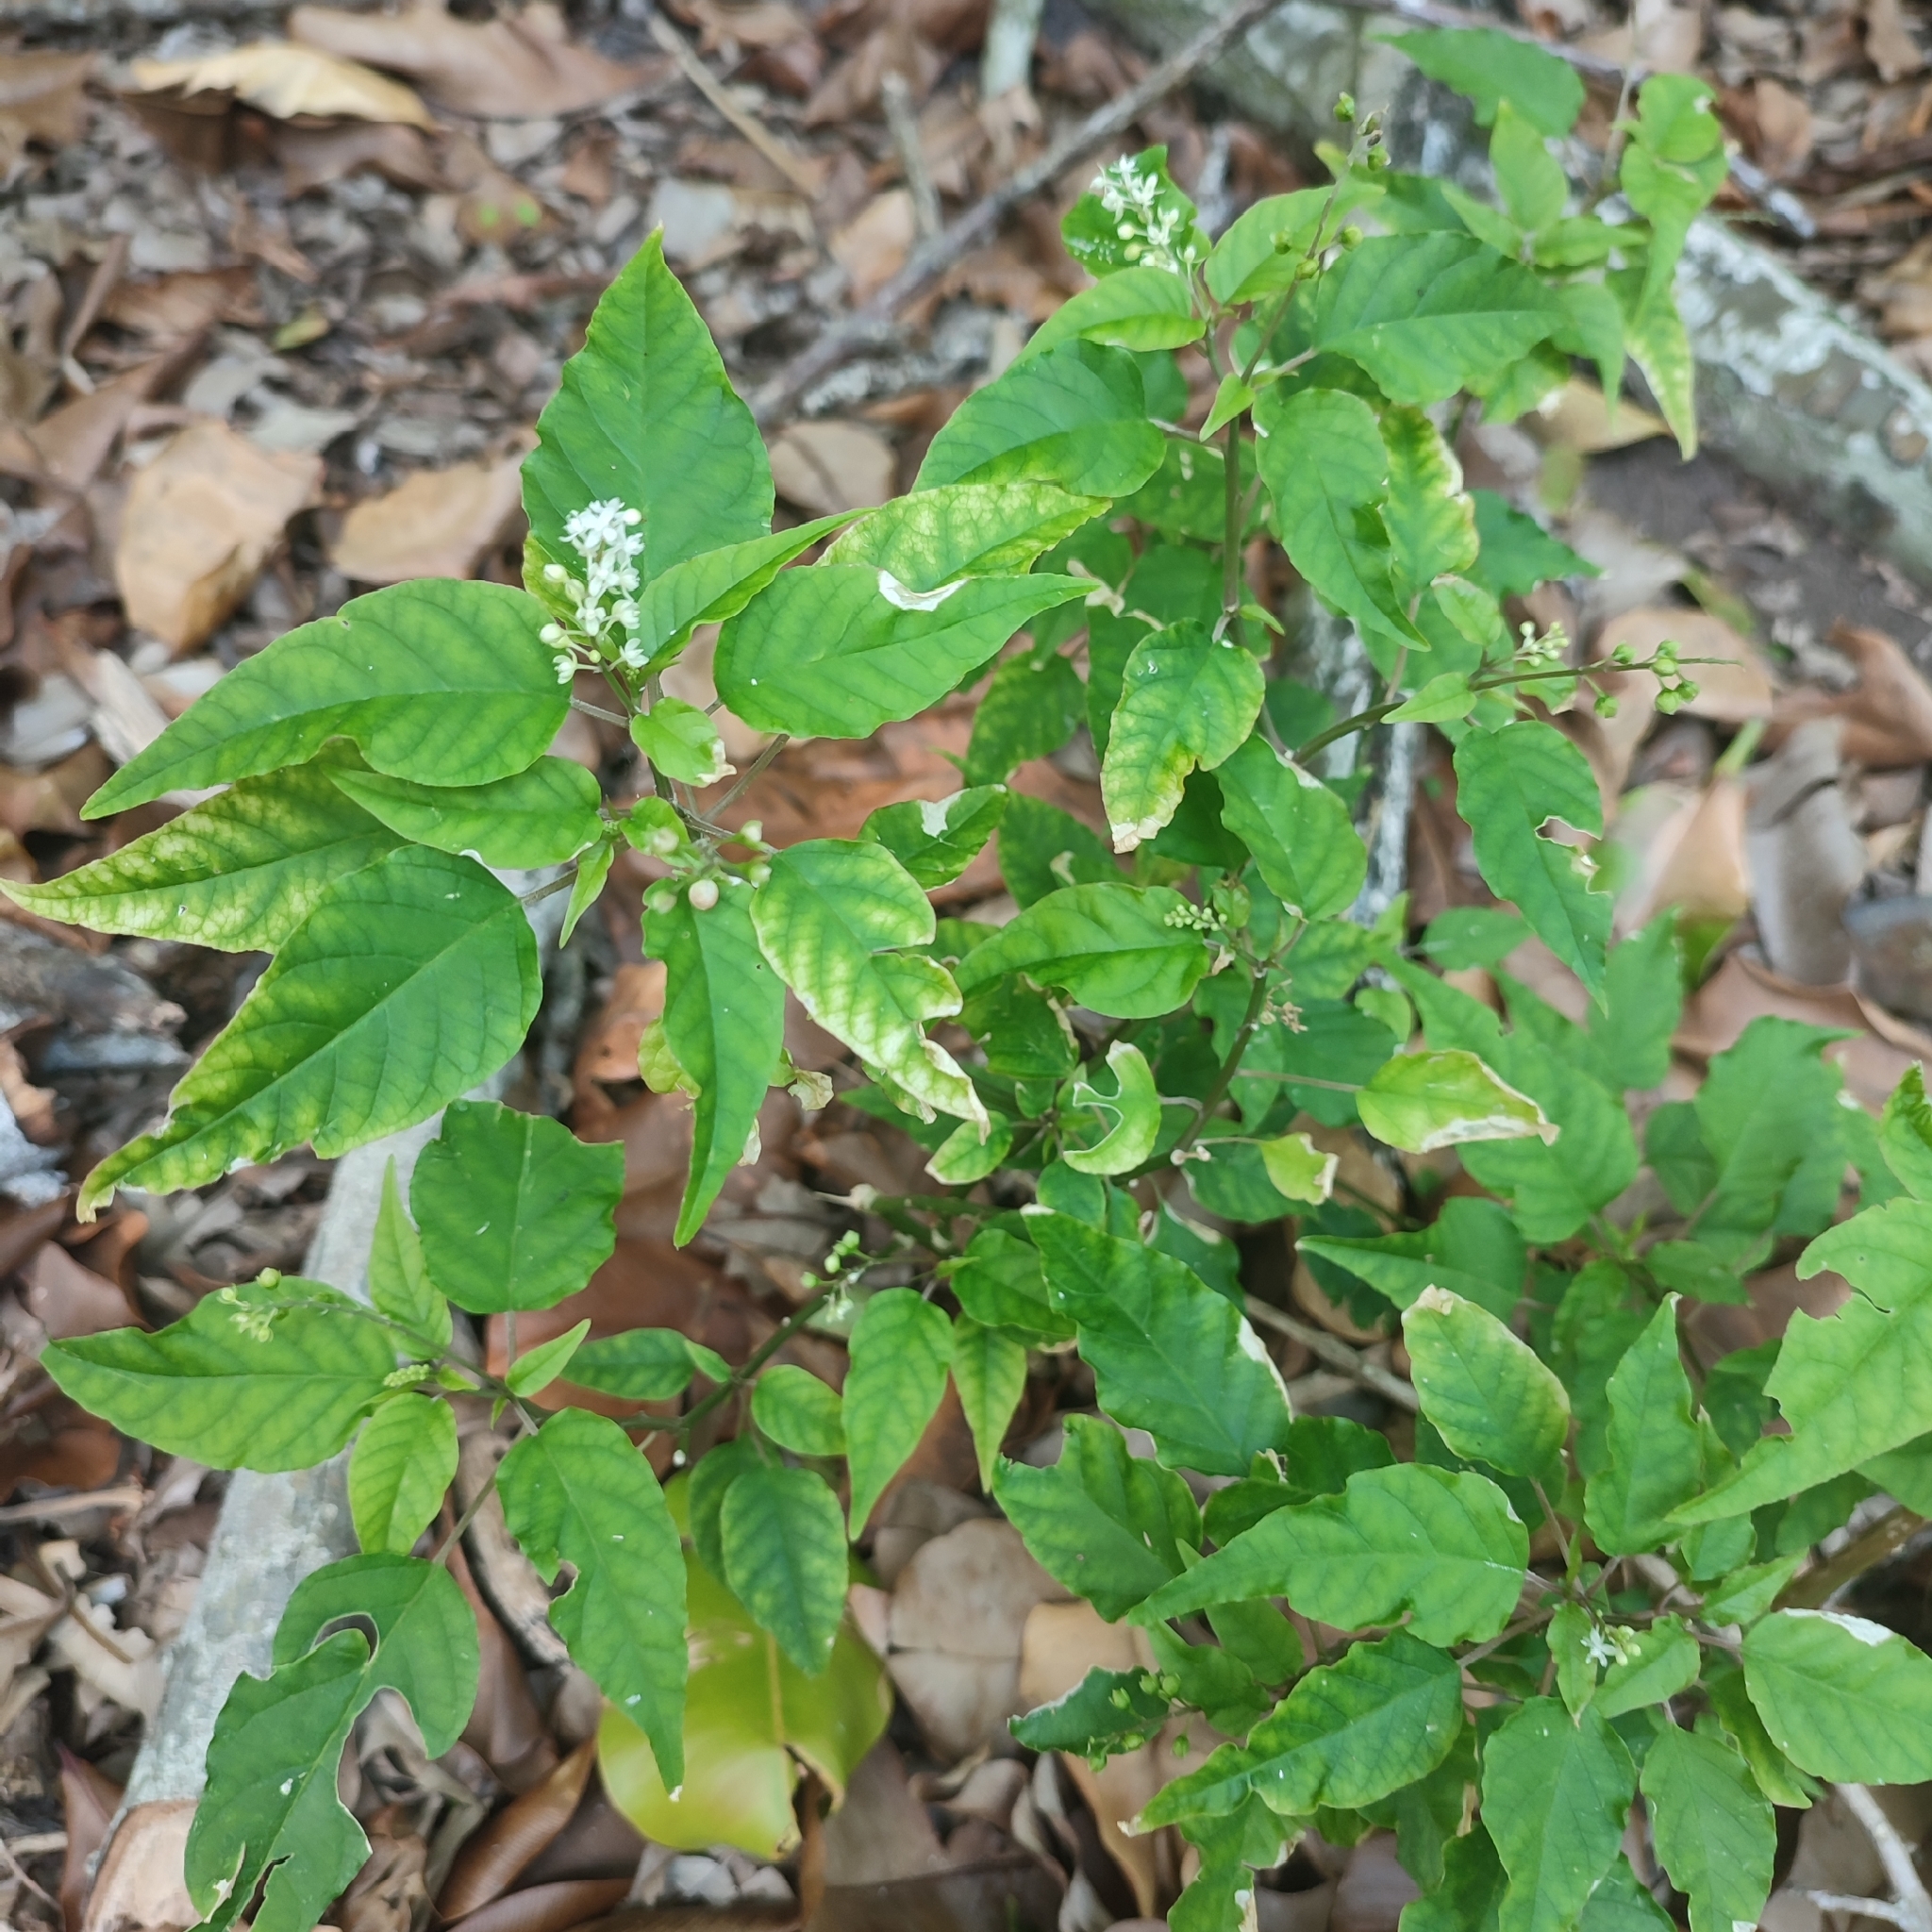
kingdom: Plantae
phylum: Tracheophyta
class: Magnoliopsida
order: Caryophyllales
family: Phytolaccaceae
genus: Rivina
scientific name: Rivina humilis
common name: Rougeplant
